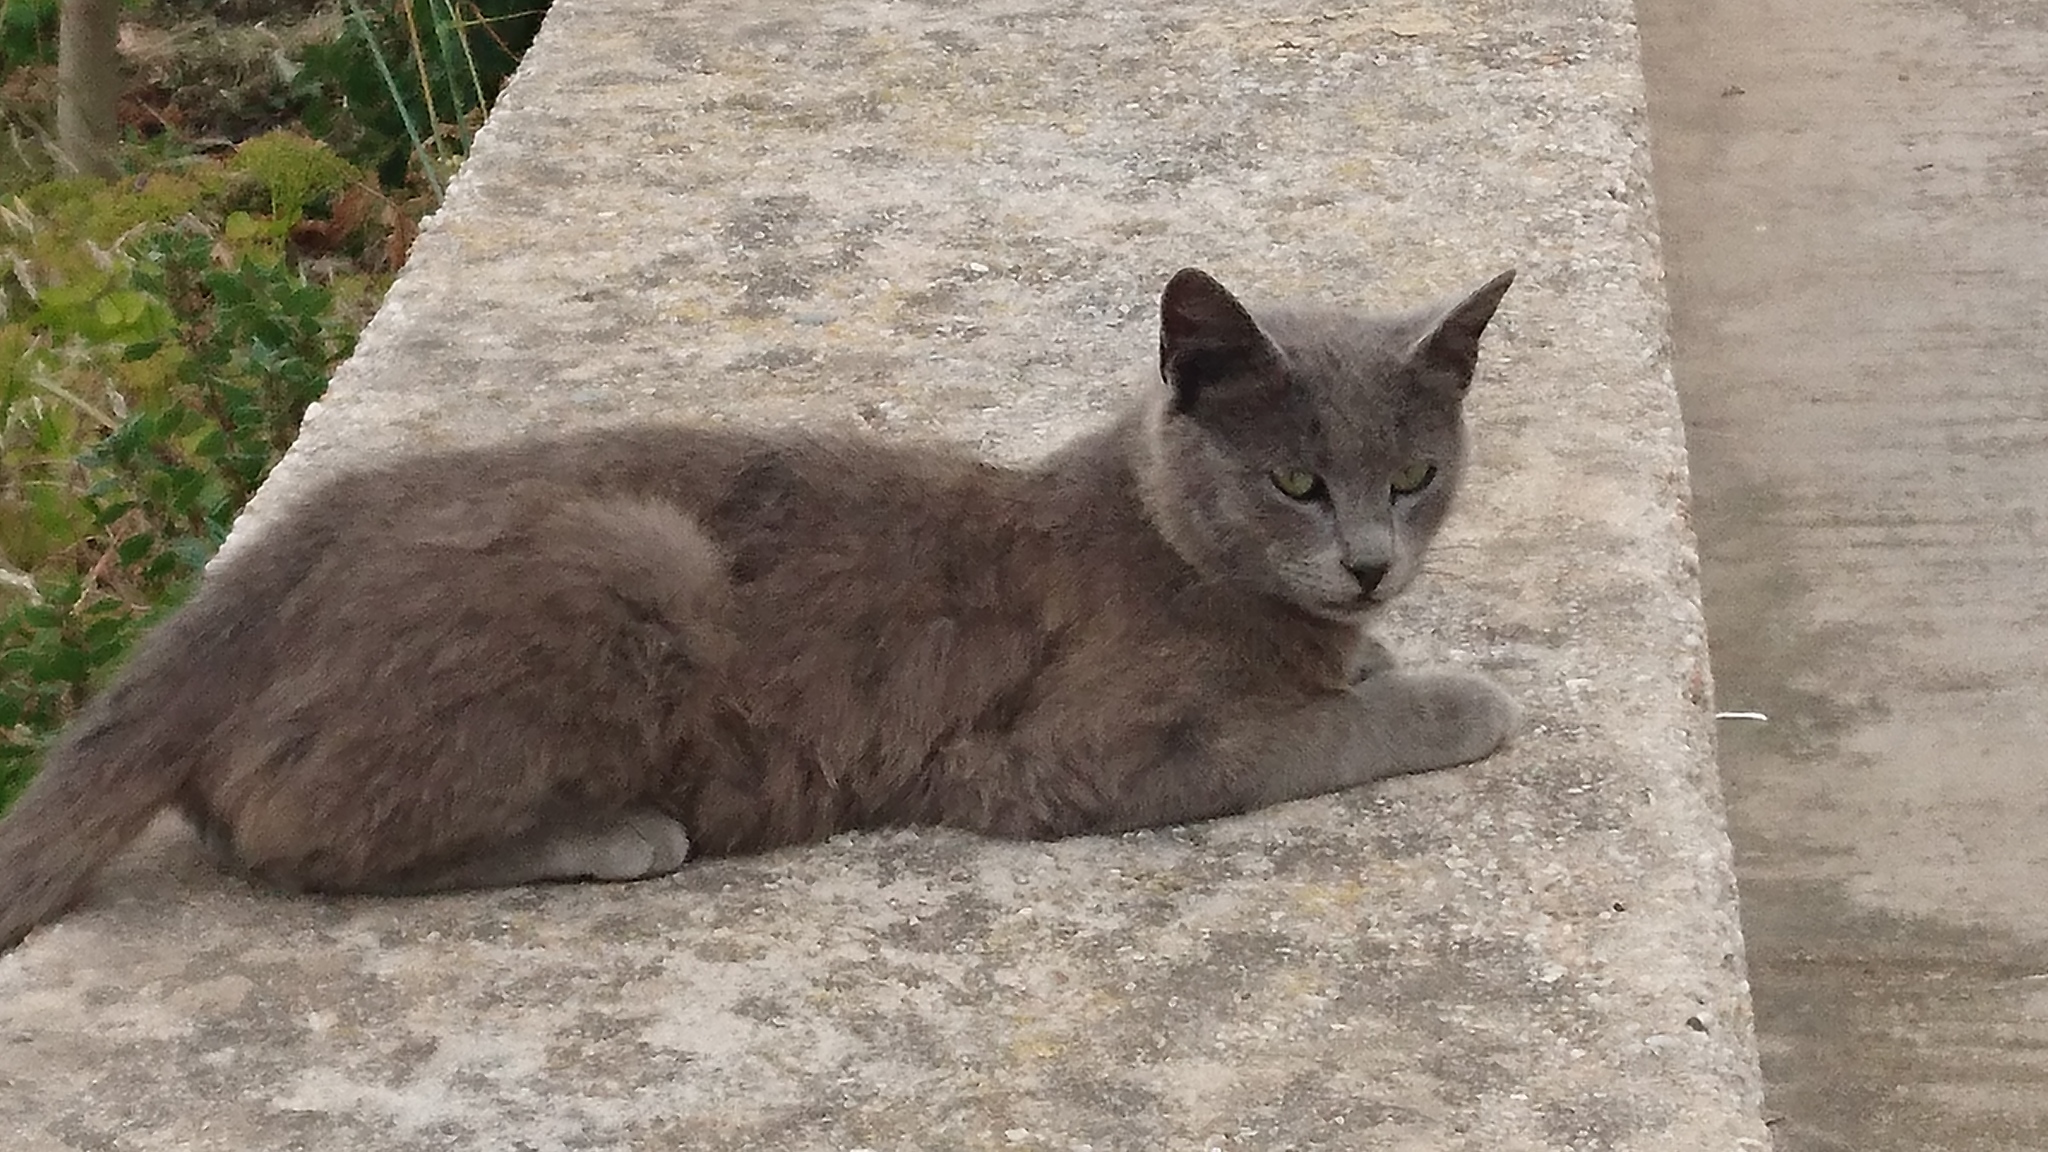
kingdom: Animalia
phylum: Chordata
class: Mammalia
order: Carnivora
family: Felidae
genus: Felis
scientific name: Felis catus
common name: Domestic cat
